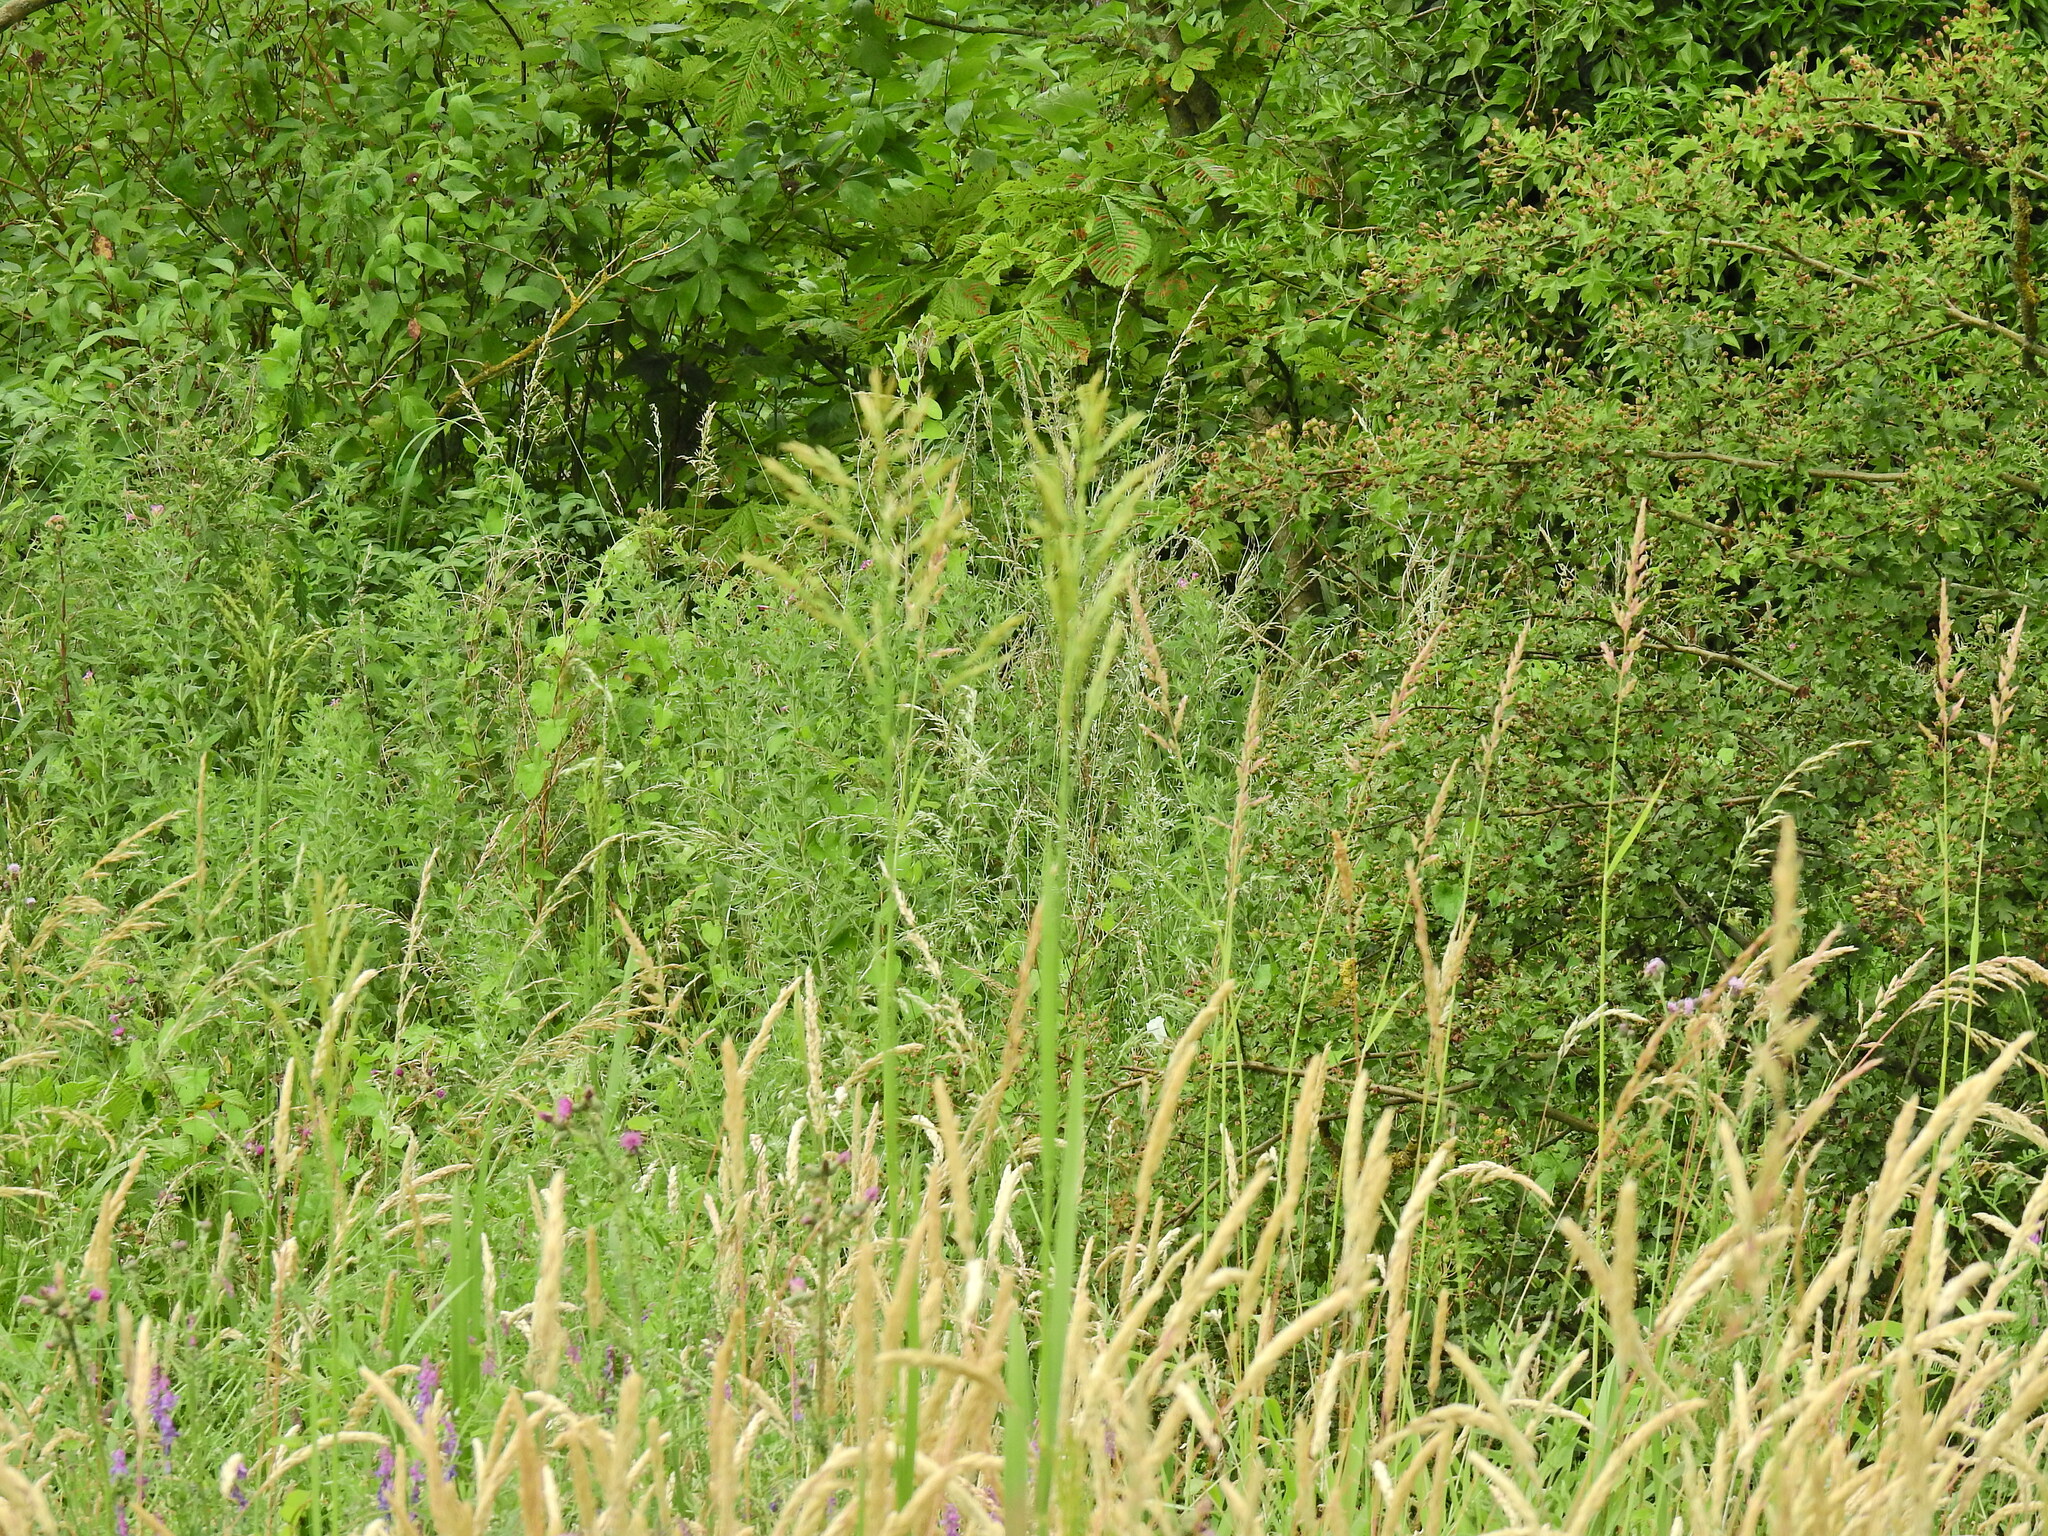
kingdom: Plantae
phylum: Tracheophyta
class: Liliopsida
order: Poales
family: Poaceae
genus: Glyceria
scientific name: Glyceria maxima
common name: Reed mannagrass
